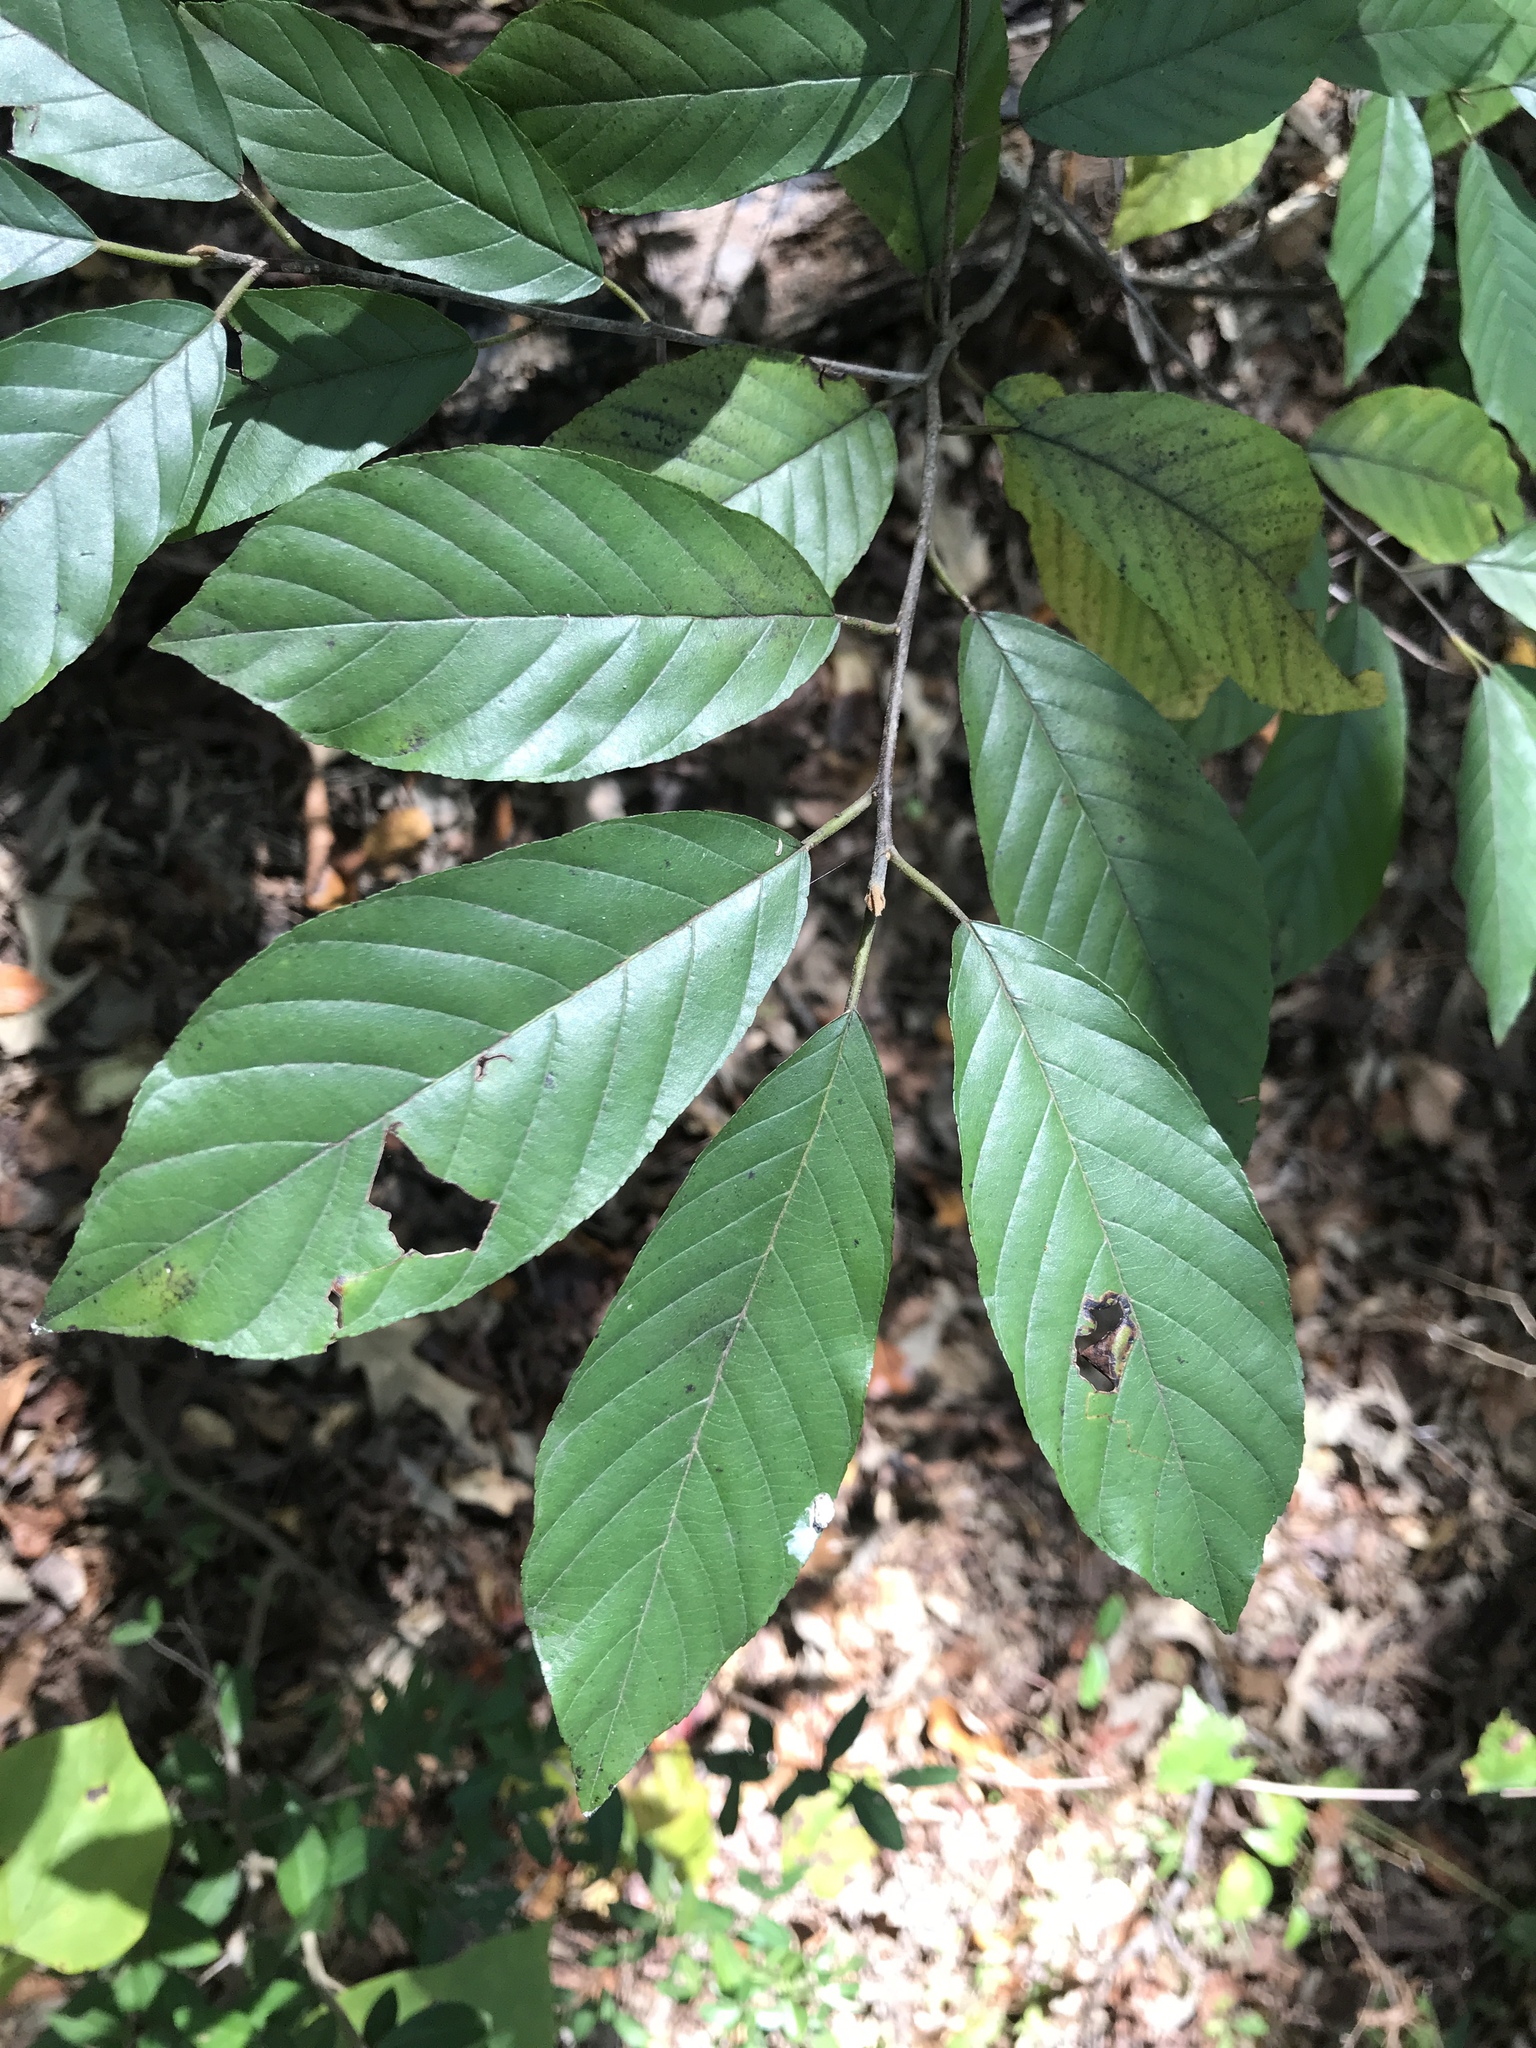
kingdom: Plantae
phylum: Tracheophyta
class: Magnoliopsida
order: Rosales
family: Rhamnaceae
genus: Frangula
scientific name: Frangula caroliniana
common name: Carolina buckthorn
